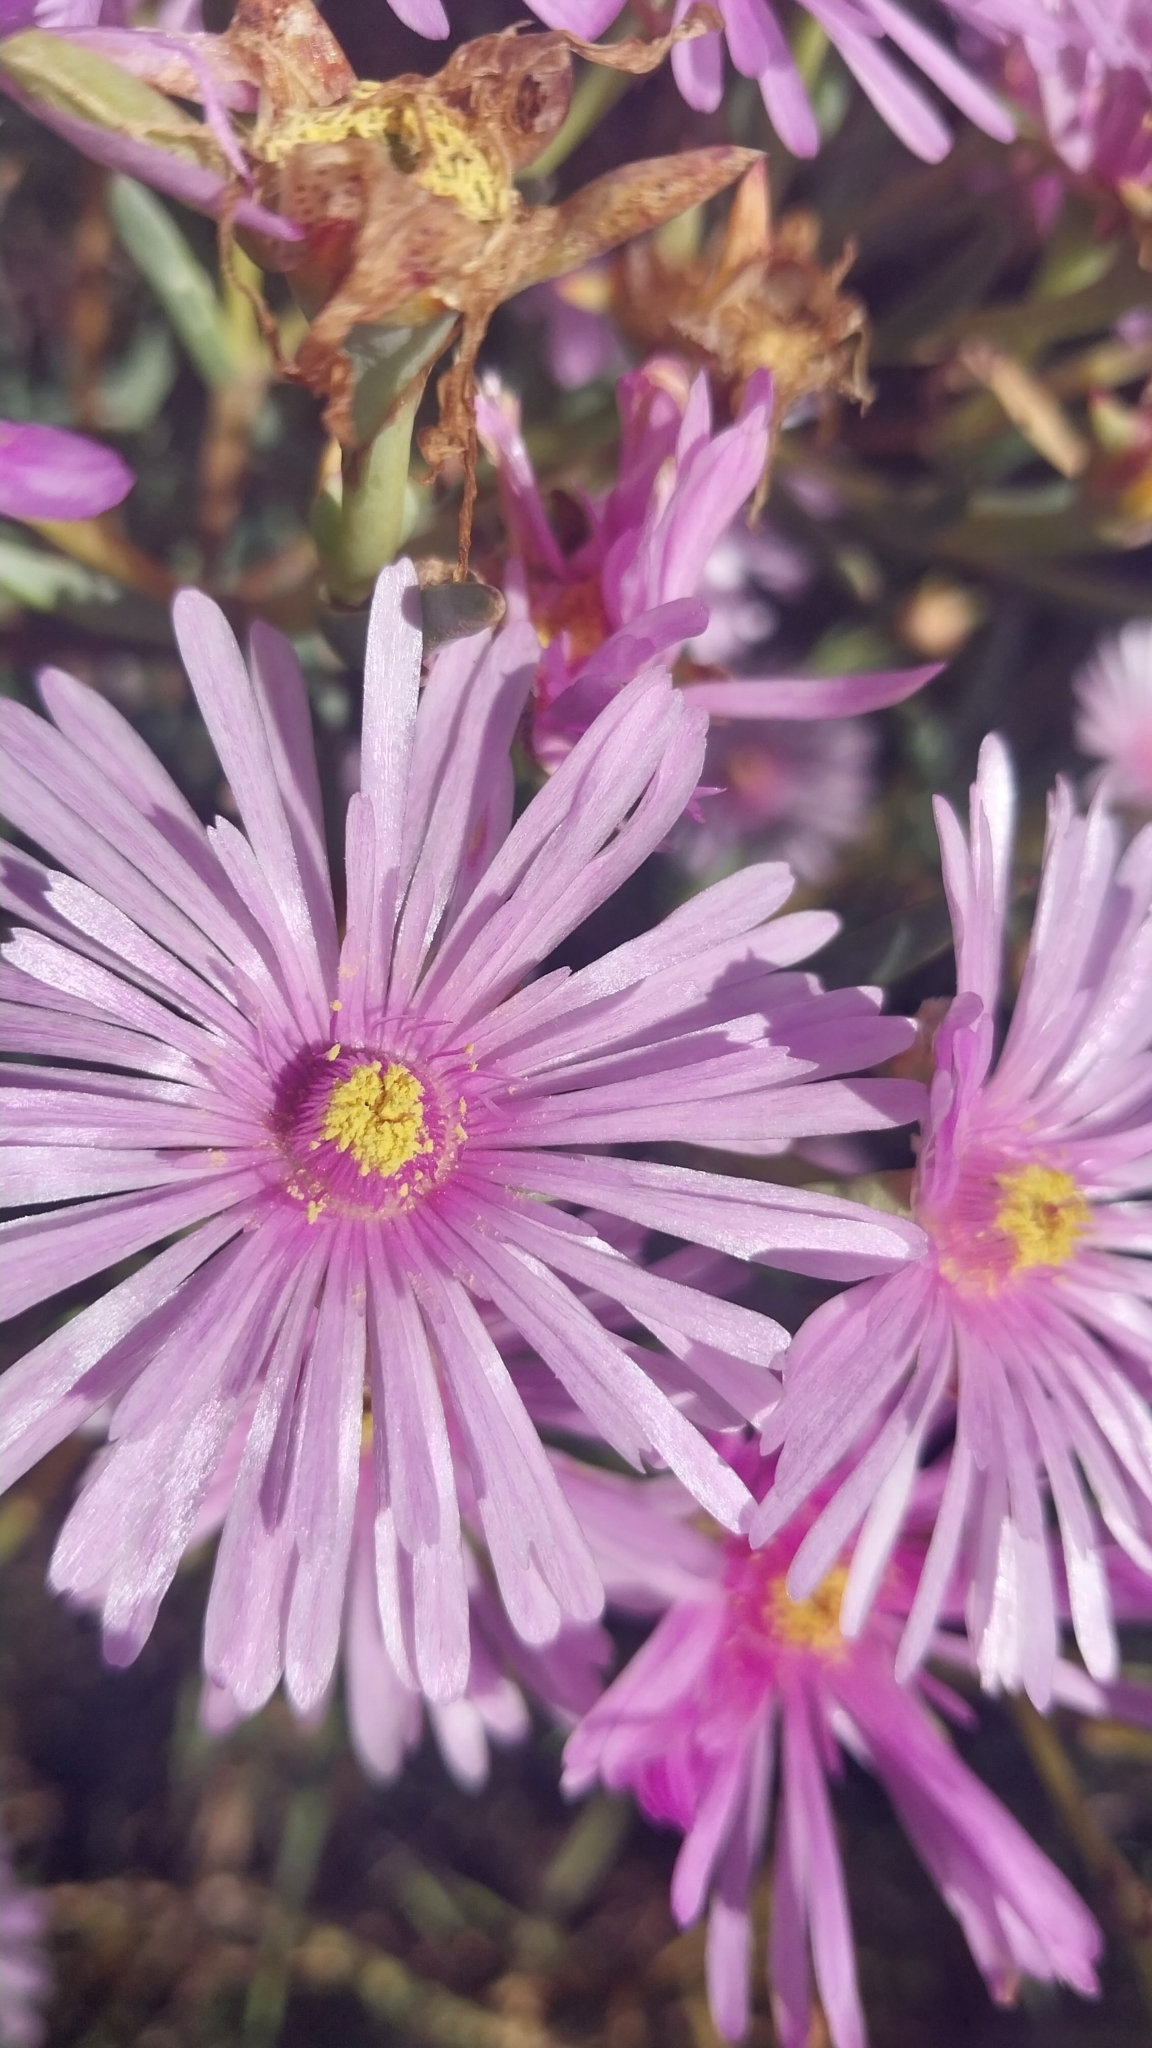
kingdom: Plantae
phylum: Tracheophyta
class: Magnoliopsida
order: Caryophyllales
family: Aizoaceae
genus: Lampranthus
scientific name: Lampranthus stipulaceus
